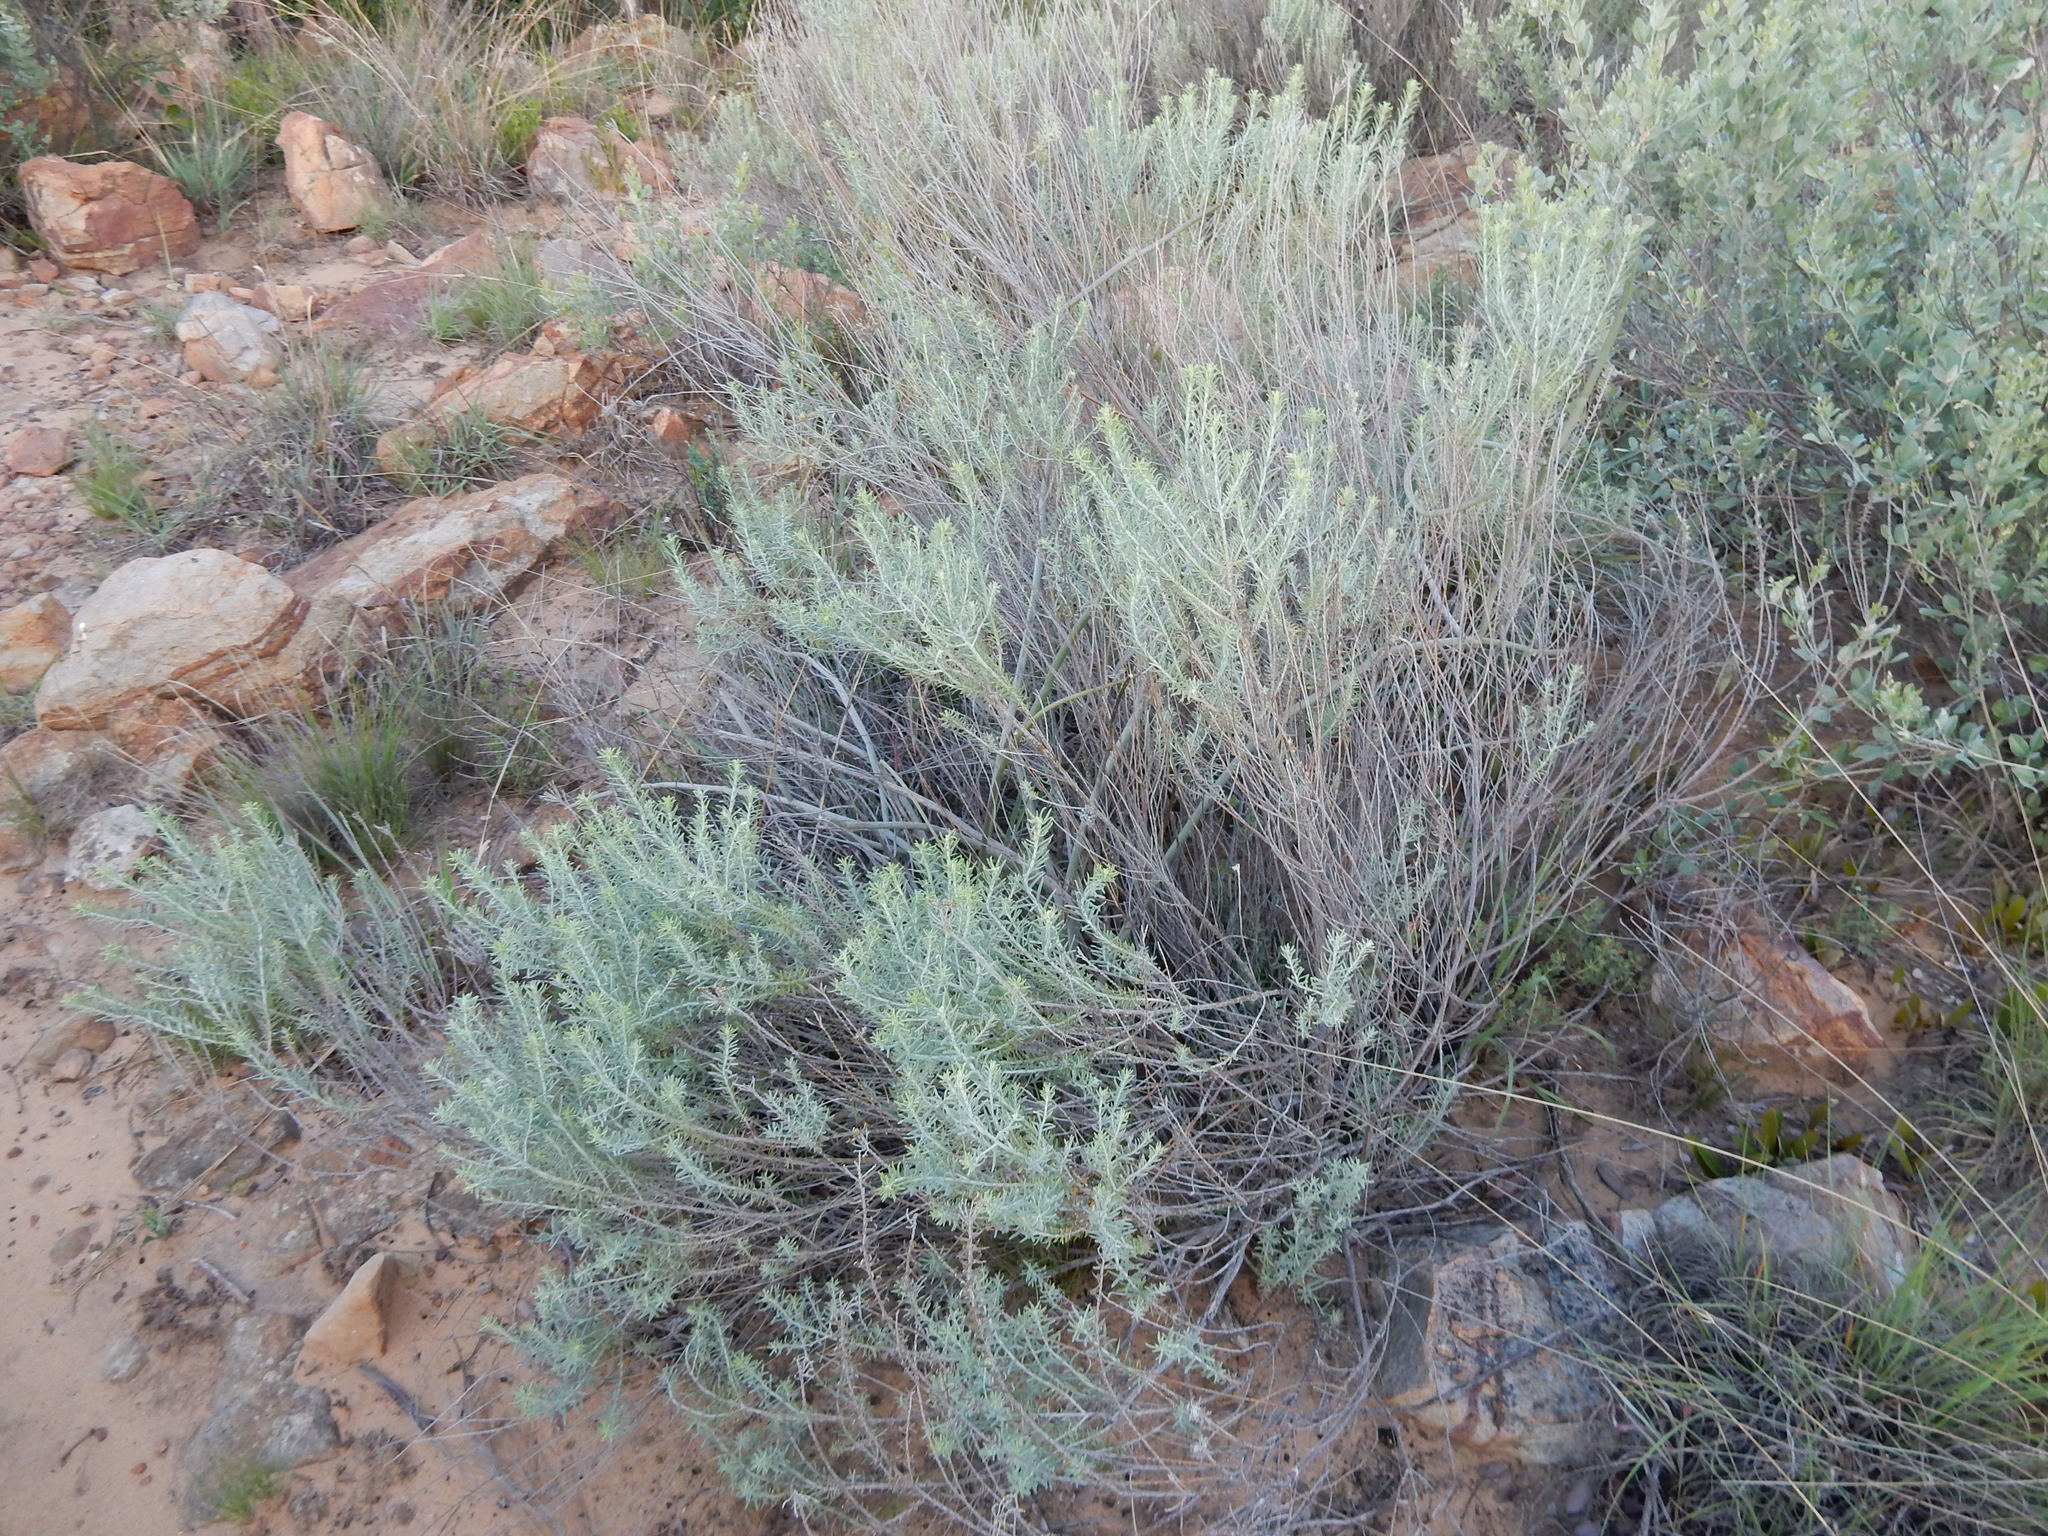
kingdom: Plantae
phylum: Tracheophyta
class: Magnoliopsida
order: Asterales
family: Asteraceae
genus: Helichrysum
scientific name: Helichrysum kraussii
